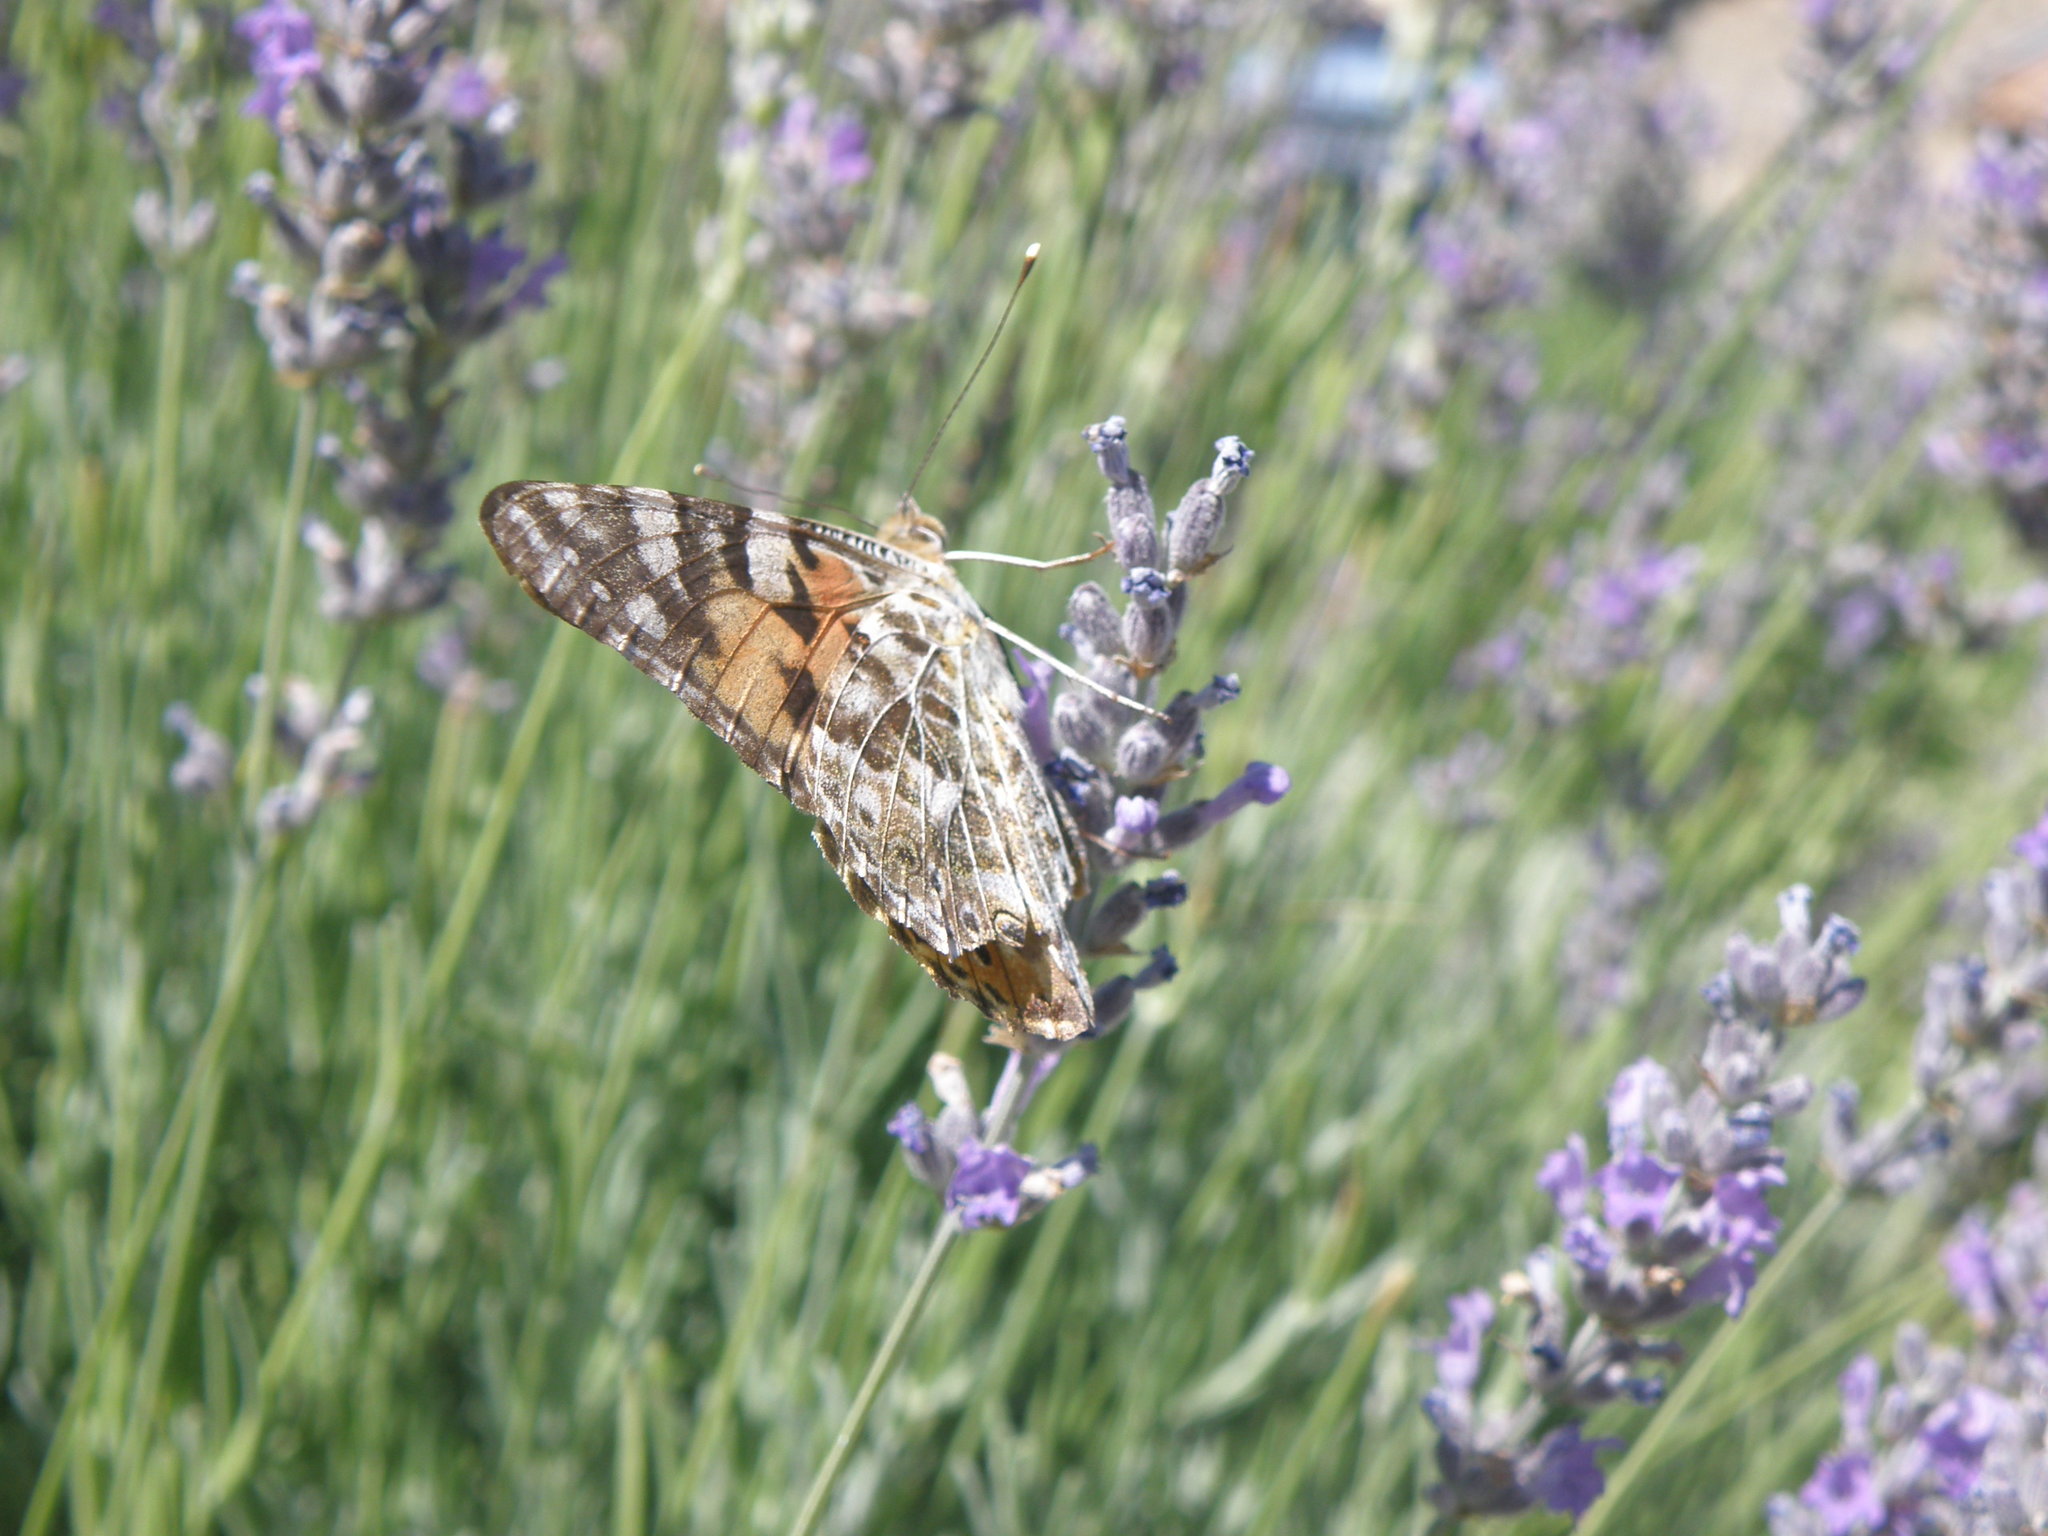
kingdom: Animalia
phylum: Arthropoda
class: Insecta
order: Lepidoptera
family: Nymphalidae
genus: Vanessa
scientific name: Vanessa cardui
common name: Painted lady
